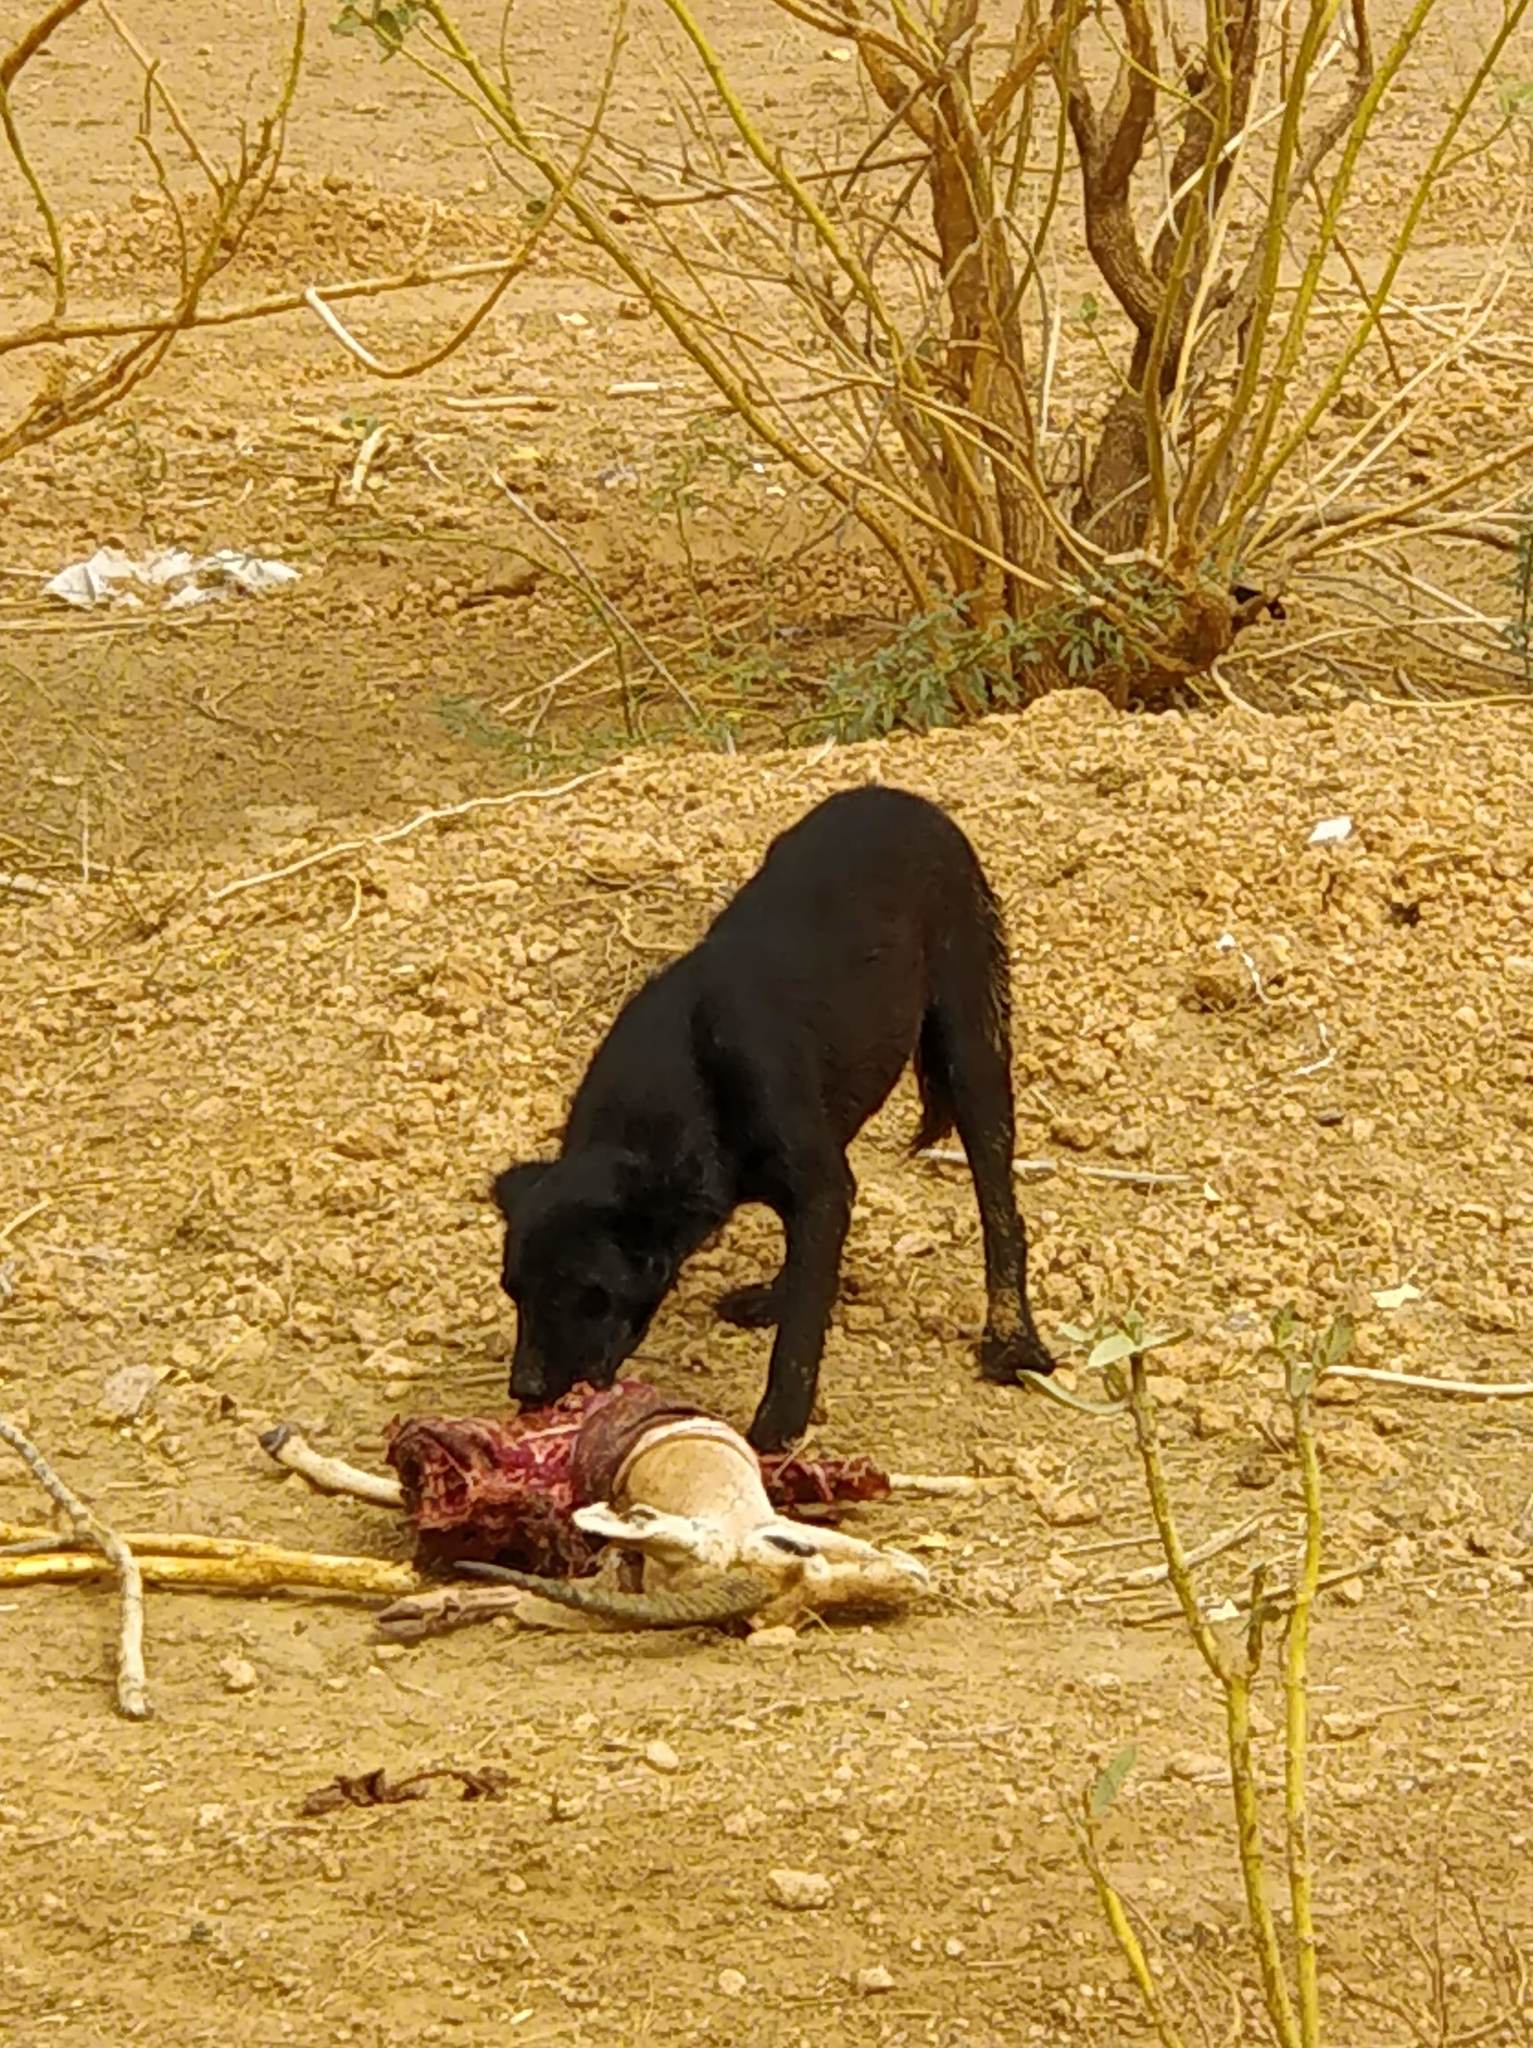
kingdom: Animalia
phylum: Chordata
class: Mammalia
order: Carnivora
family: Canidae
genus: Canis
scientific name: Canis lupus
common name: Gray wolf
